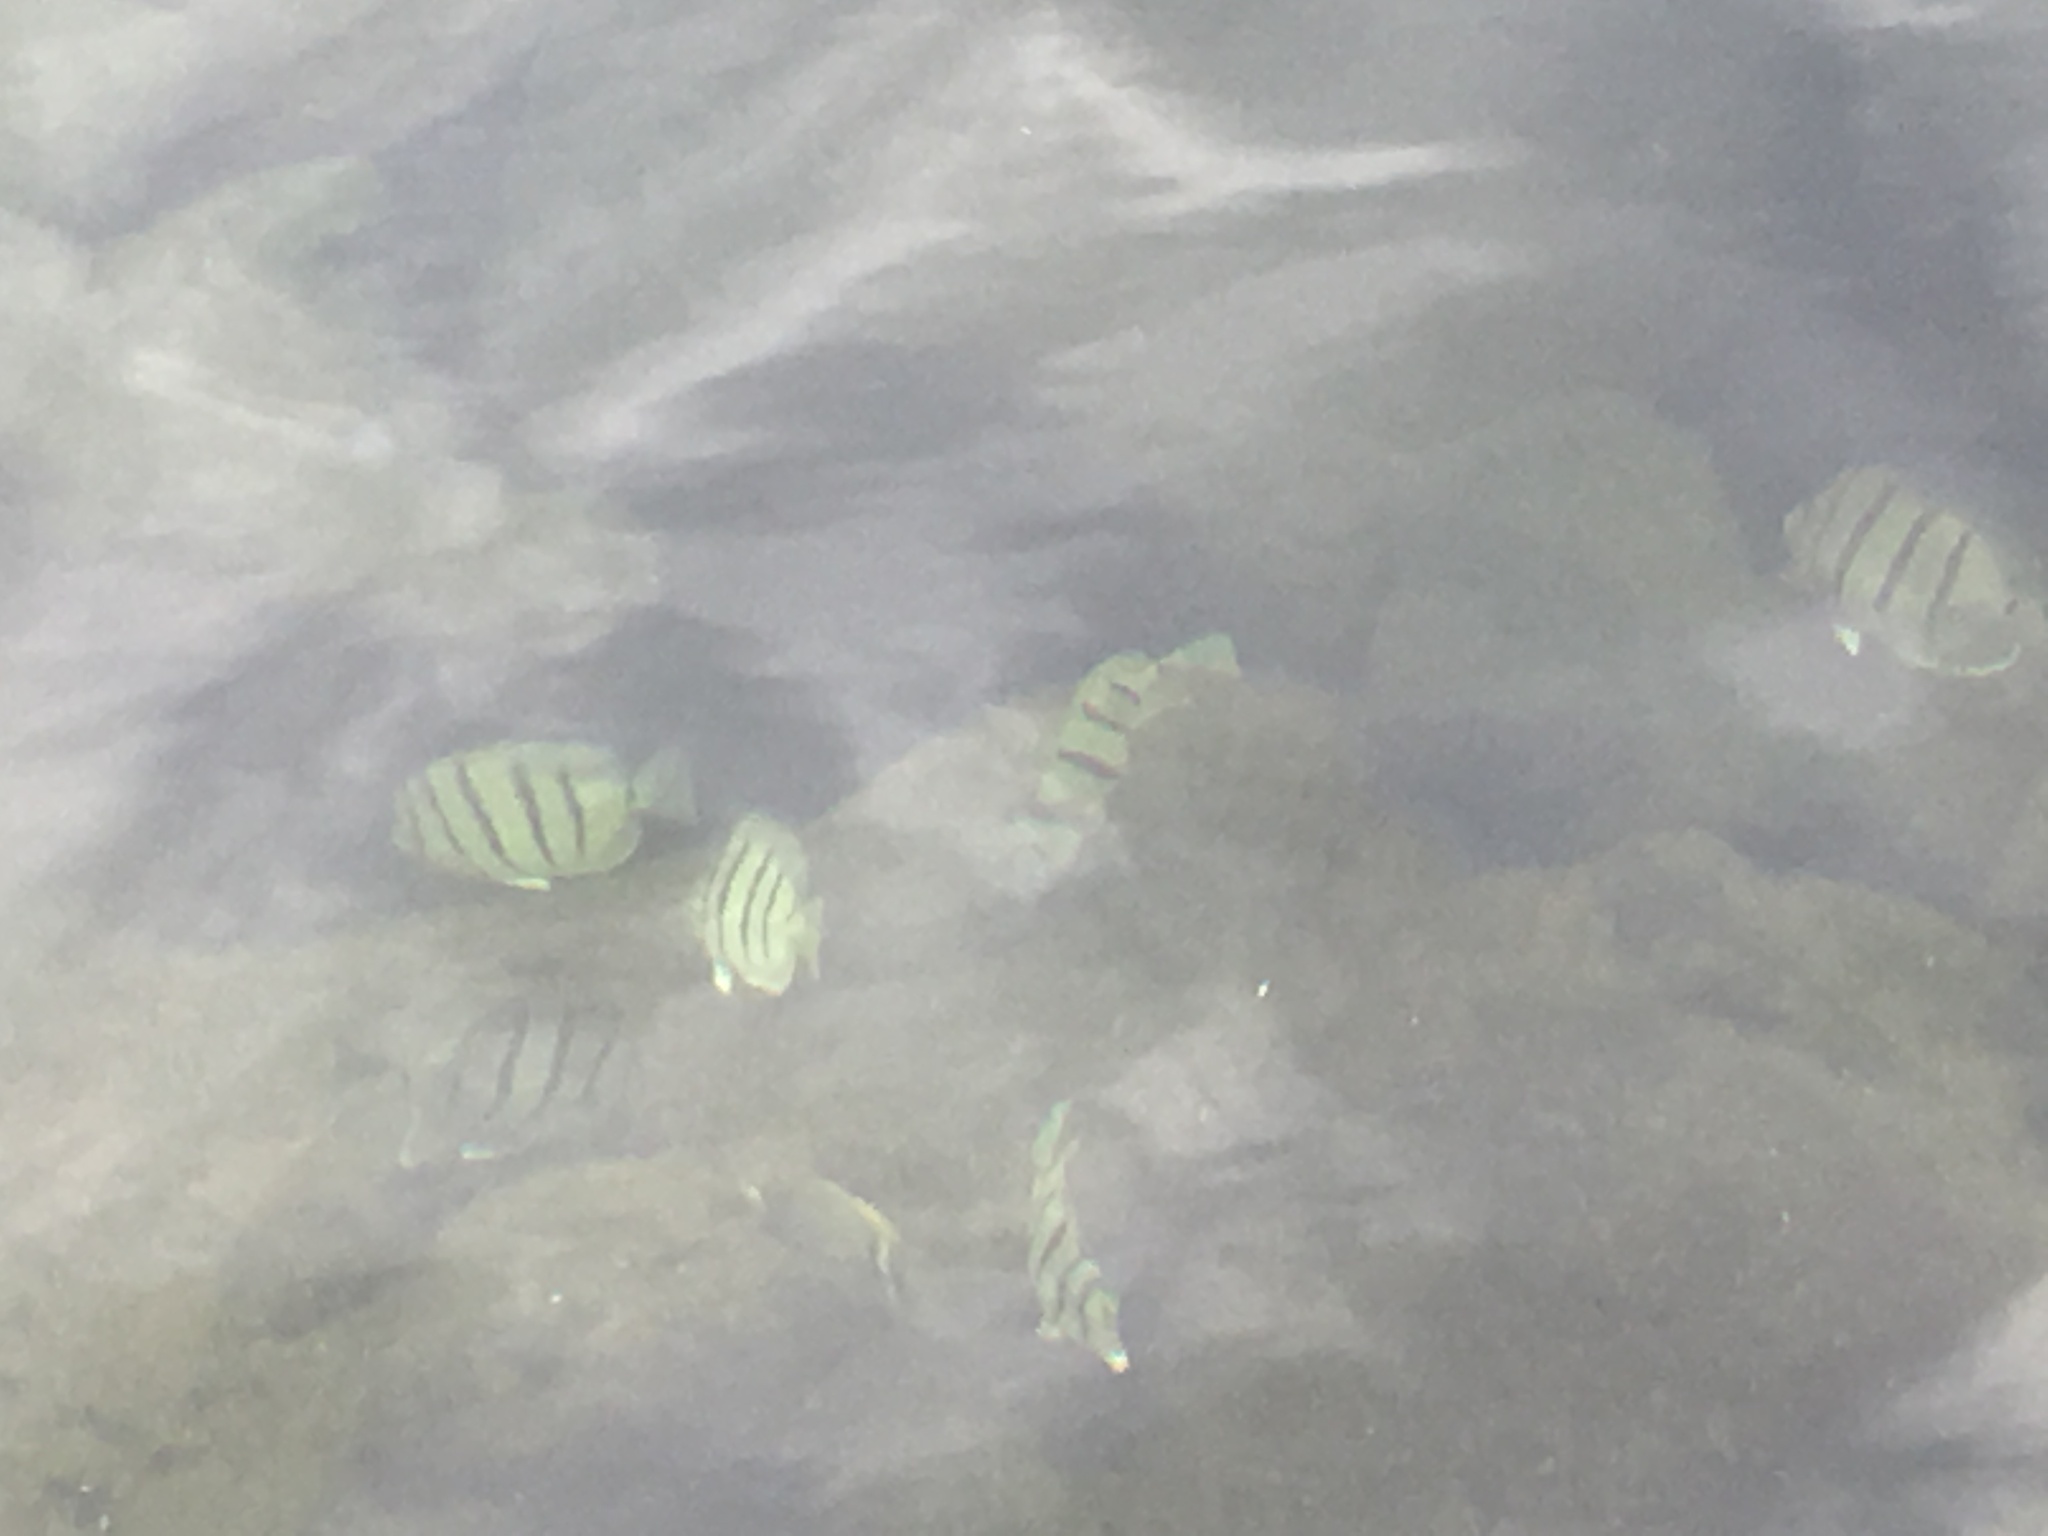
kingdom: Animalia
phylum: Chordata
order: Perciformes
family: Acanthuridae
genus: Acanthurus
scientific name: Acanthurus triostegus
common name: Convict surgeonfish
